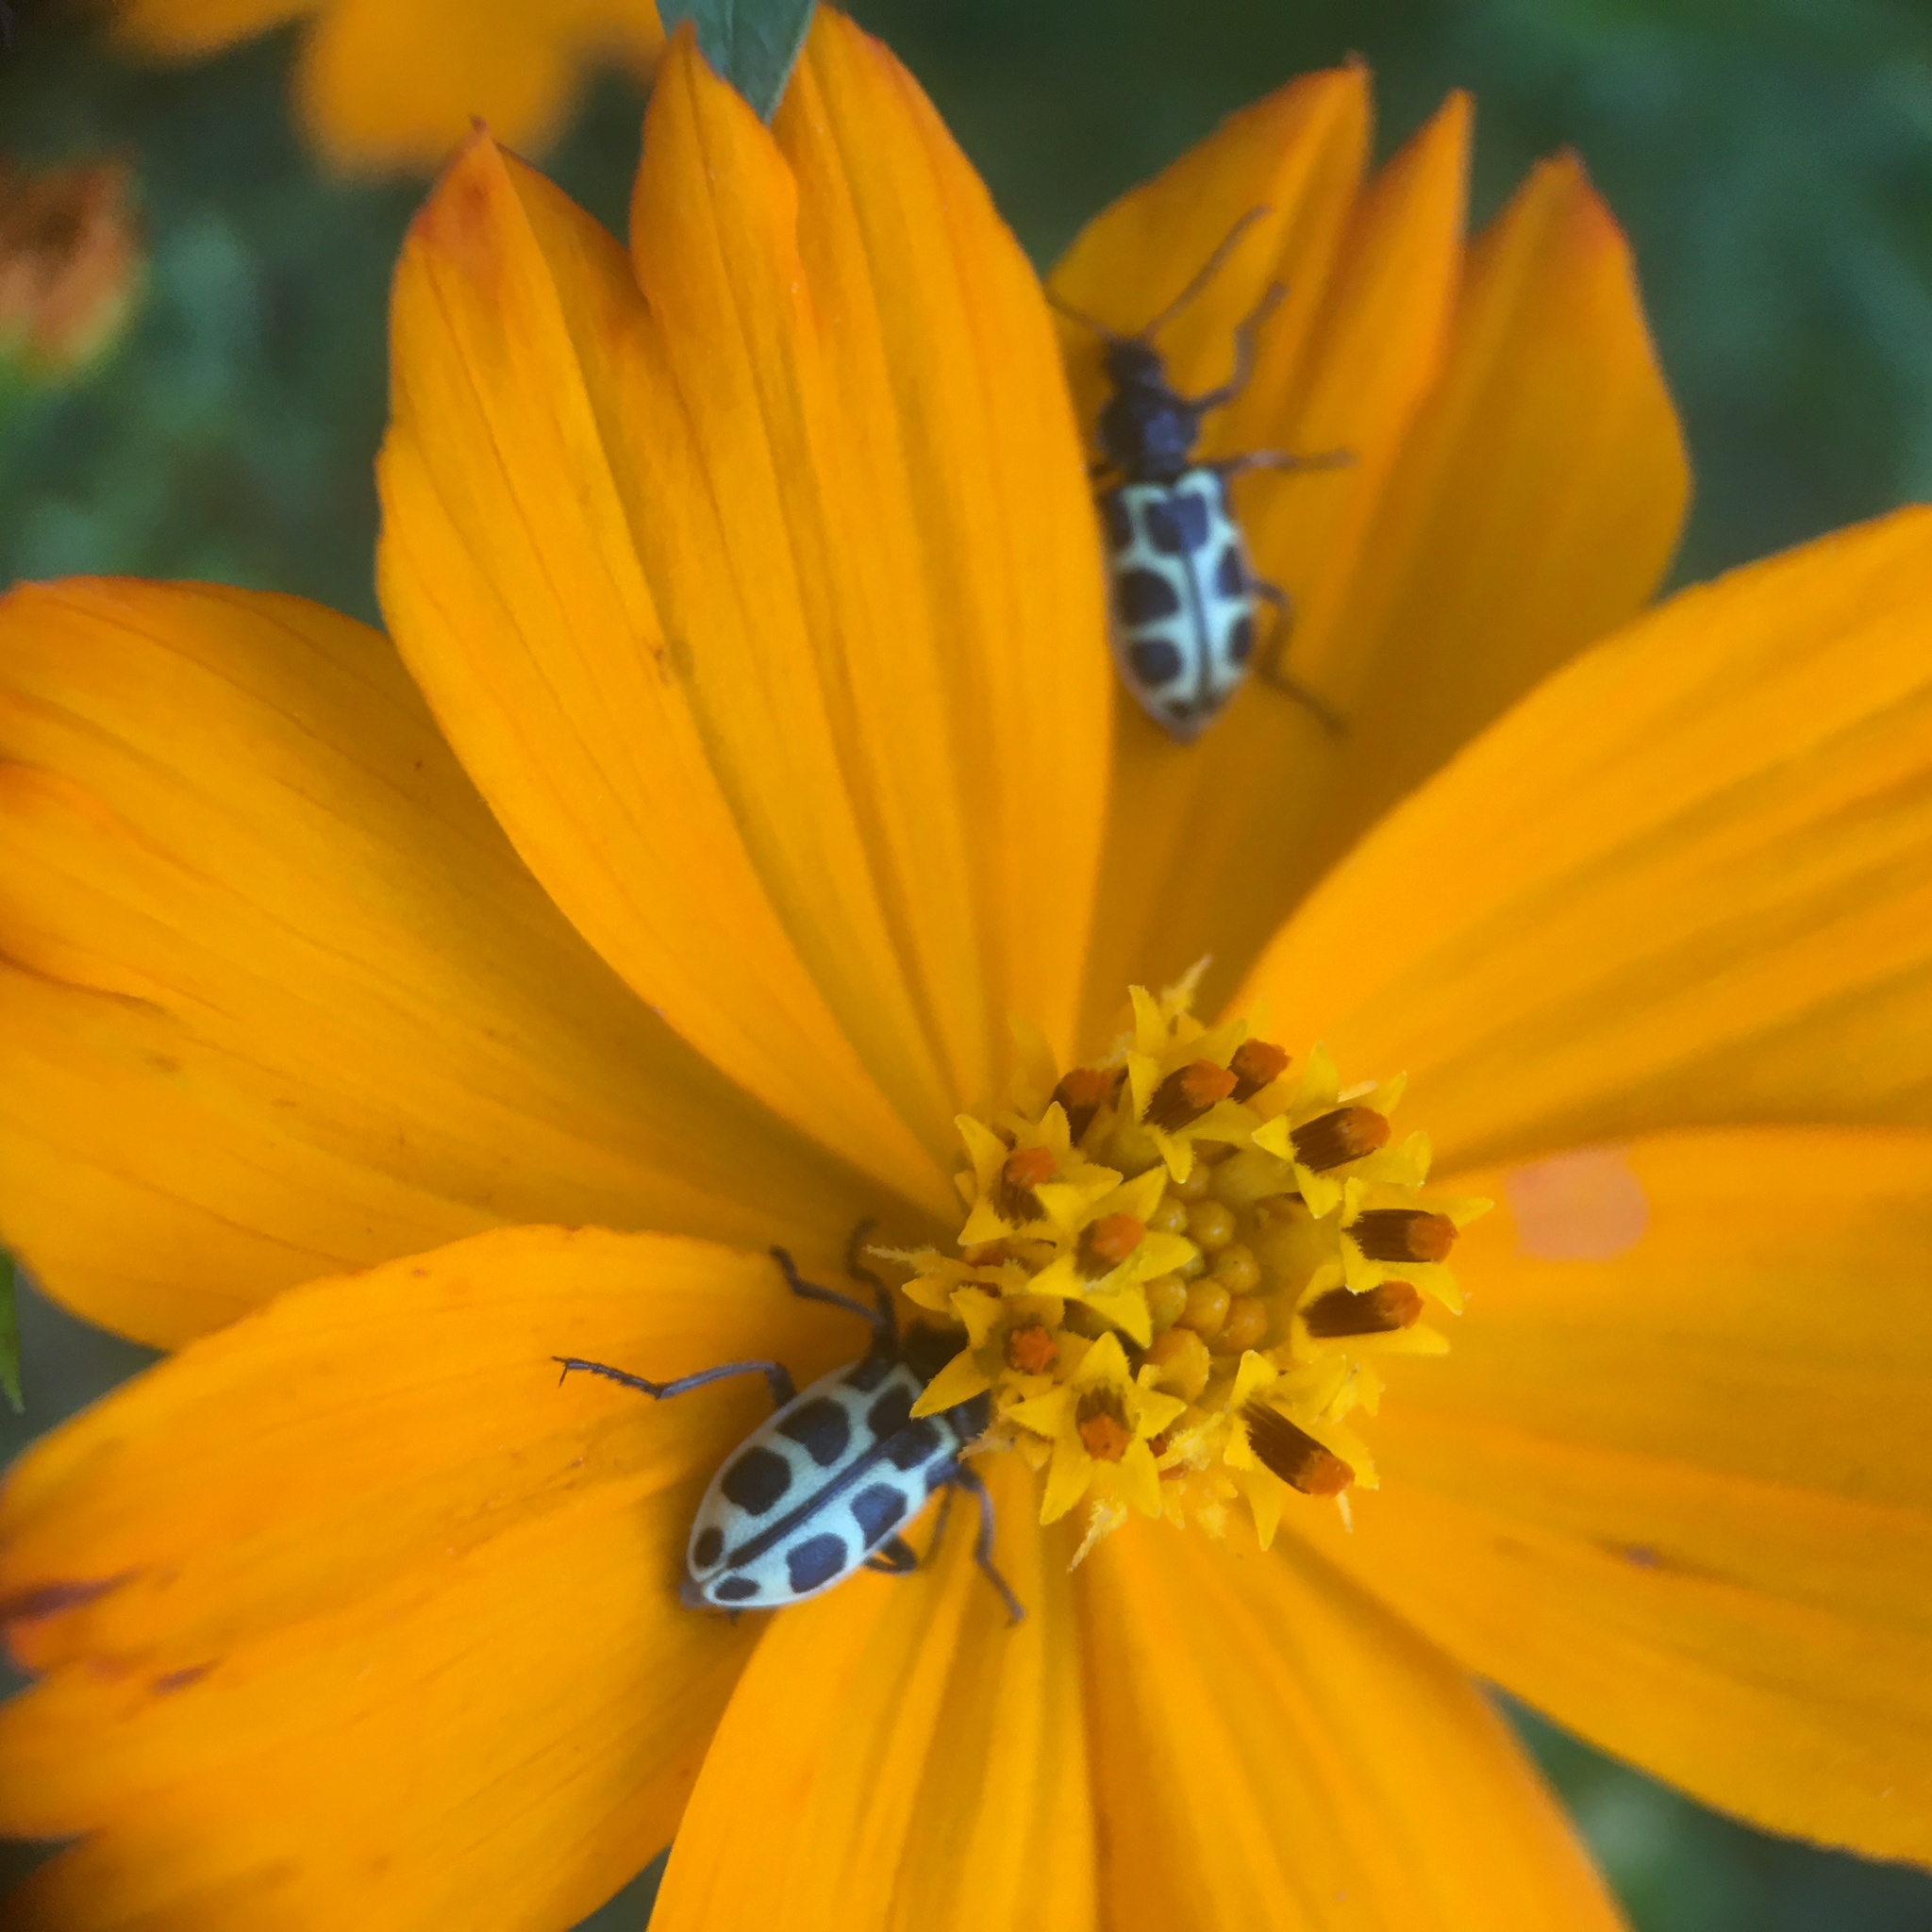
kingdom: Animalia
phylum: Arthropoda
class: Insecta
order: Coleoptera
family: Melyridae
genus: Astylus
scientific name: Astylus
